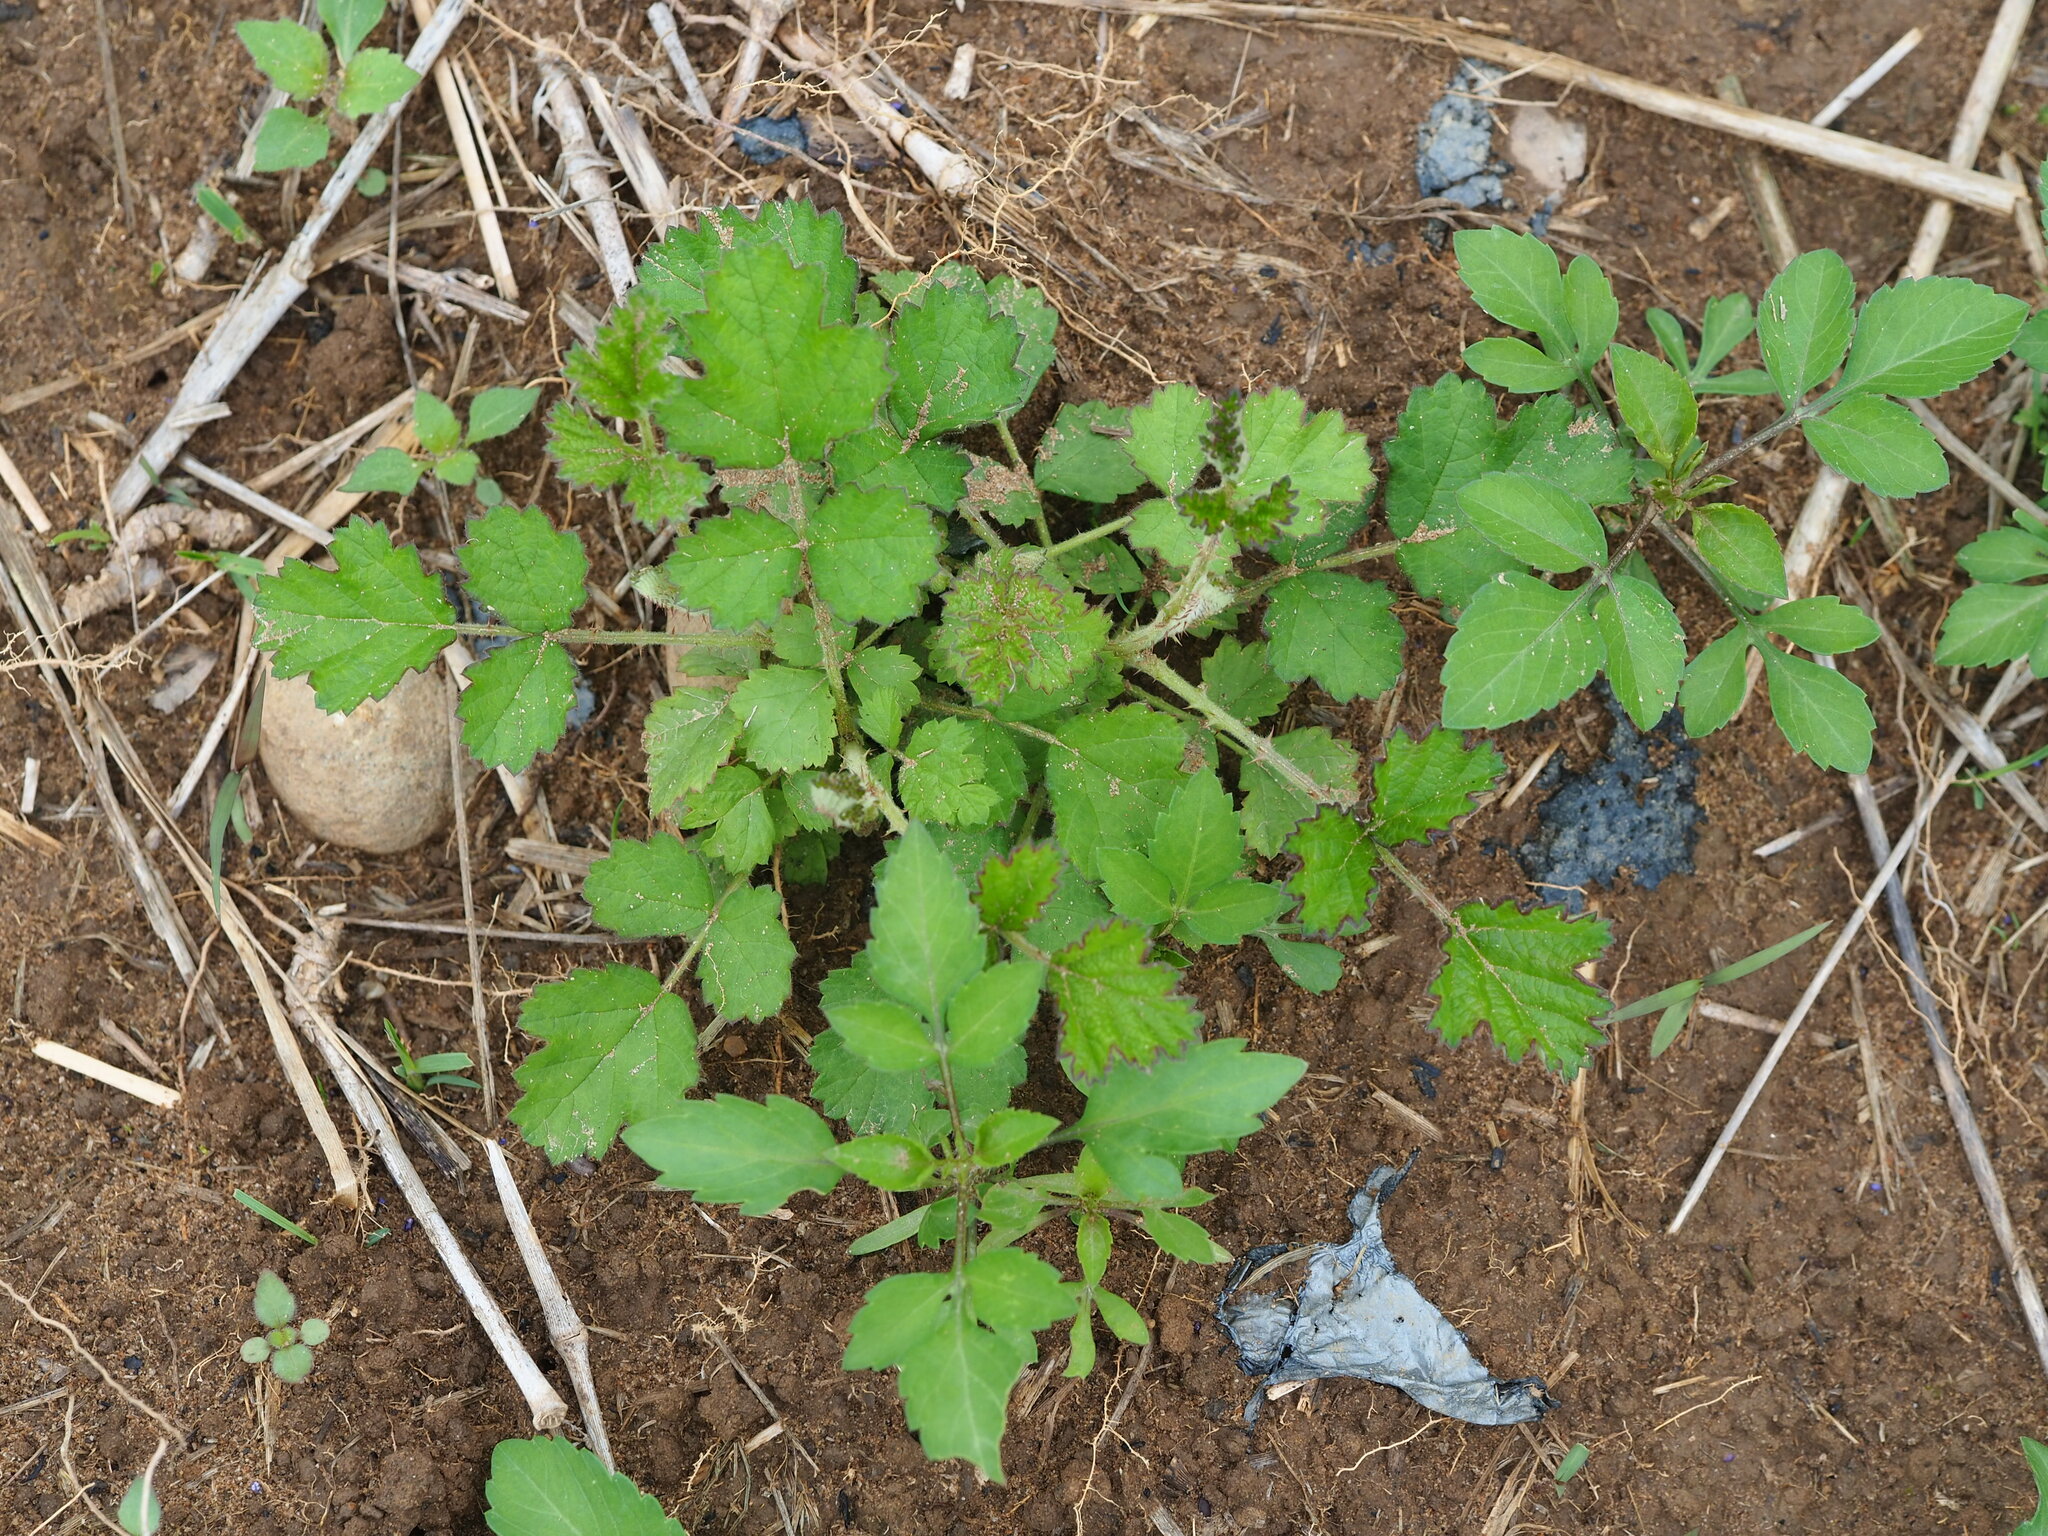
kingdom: Plantae
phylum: Tracheophyta
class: Magnoliopsida
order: Rosales
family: Rosaceae
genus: Rubus
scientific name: Rubus parvifolius
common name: Threeleaf blackberry
